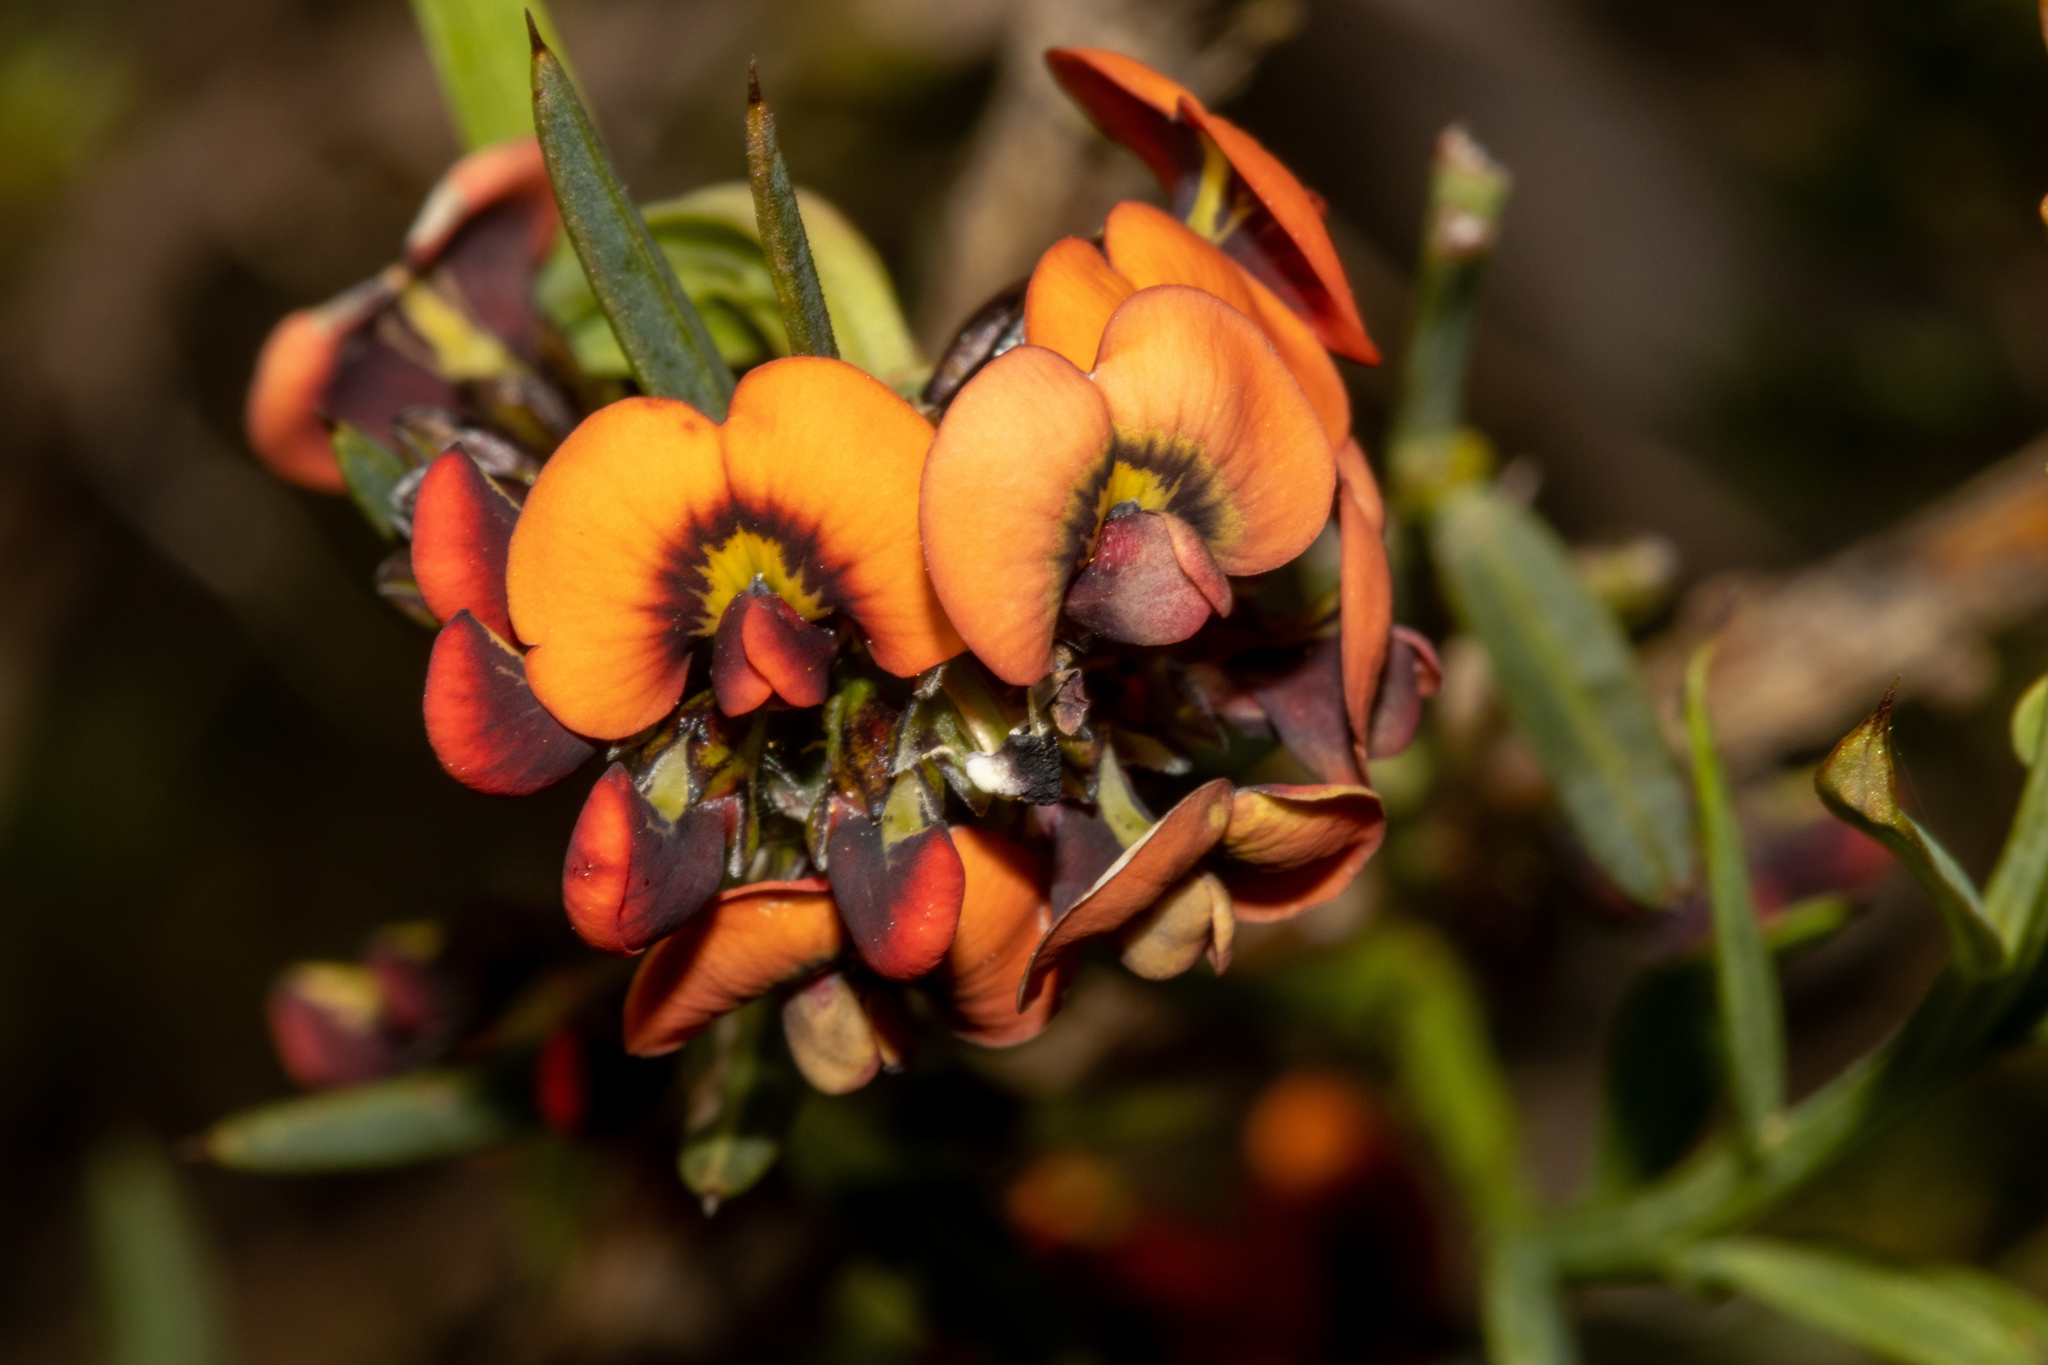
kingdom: Plantae
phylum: Tracheophyta
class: Magnoliopsida
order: Fabales
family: Fabaceae
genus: Daviesia
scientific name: Daviesia ulicifolia
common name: Gorse bitter-pea
